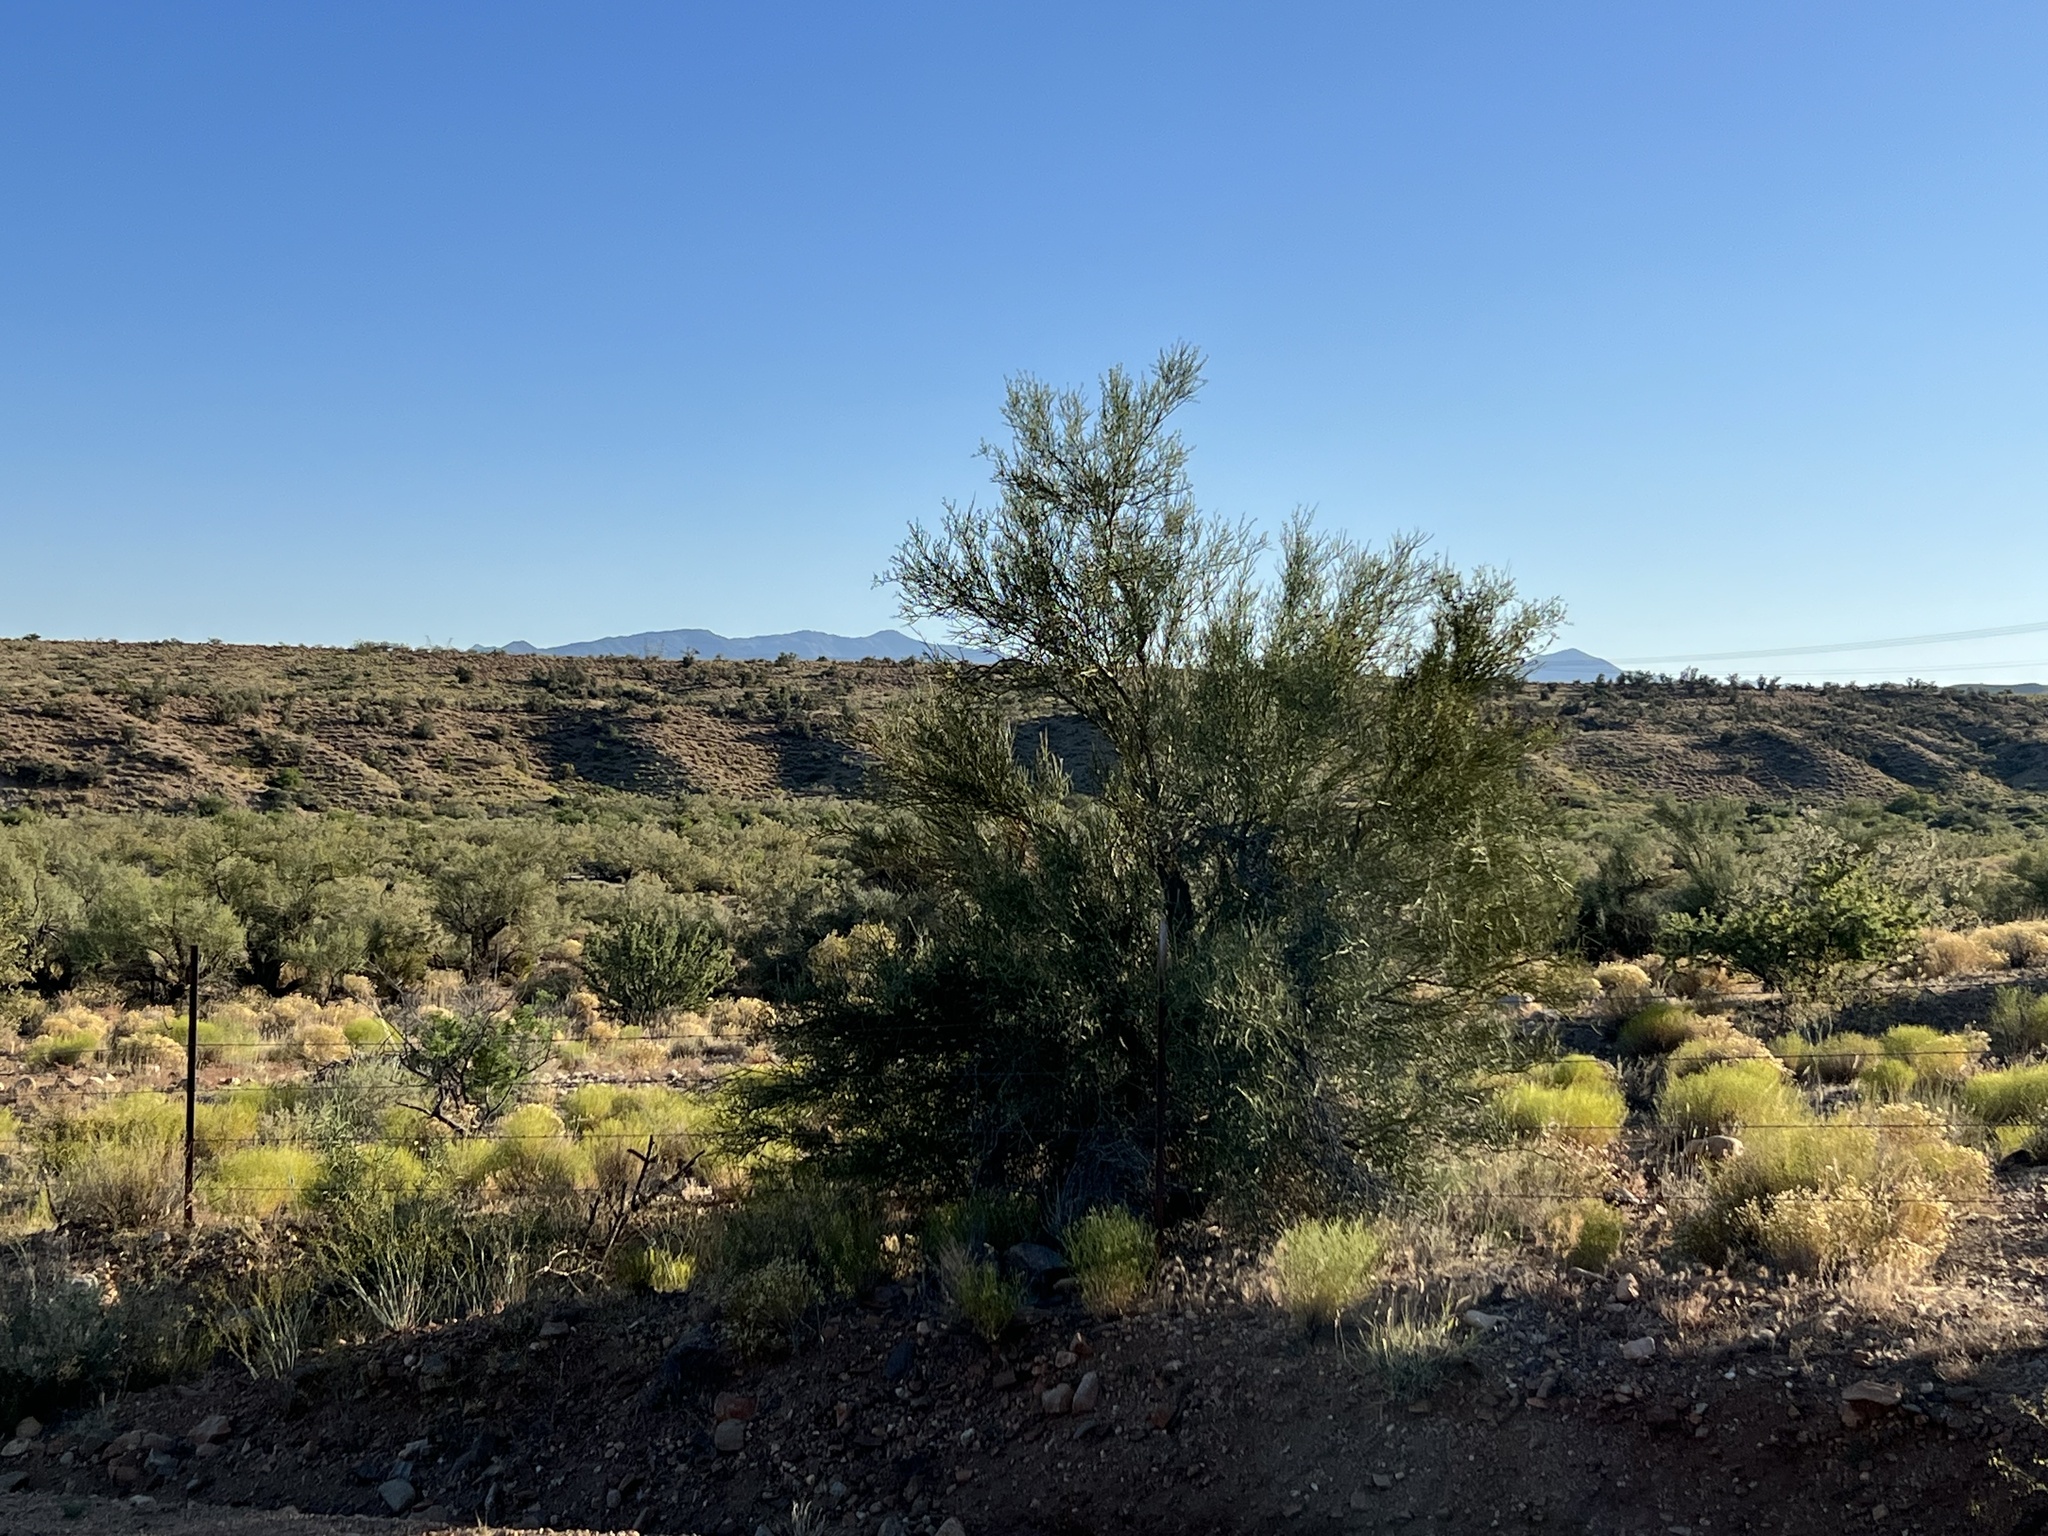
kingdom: Plantae
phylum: Tracheophyta
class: Magnoliopsida
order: Celastrales
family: Celastraceae
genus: Canotia
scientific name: Canotia holacantha
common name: Crucifixion thorns
